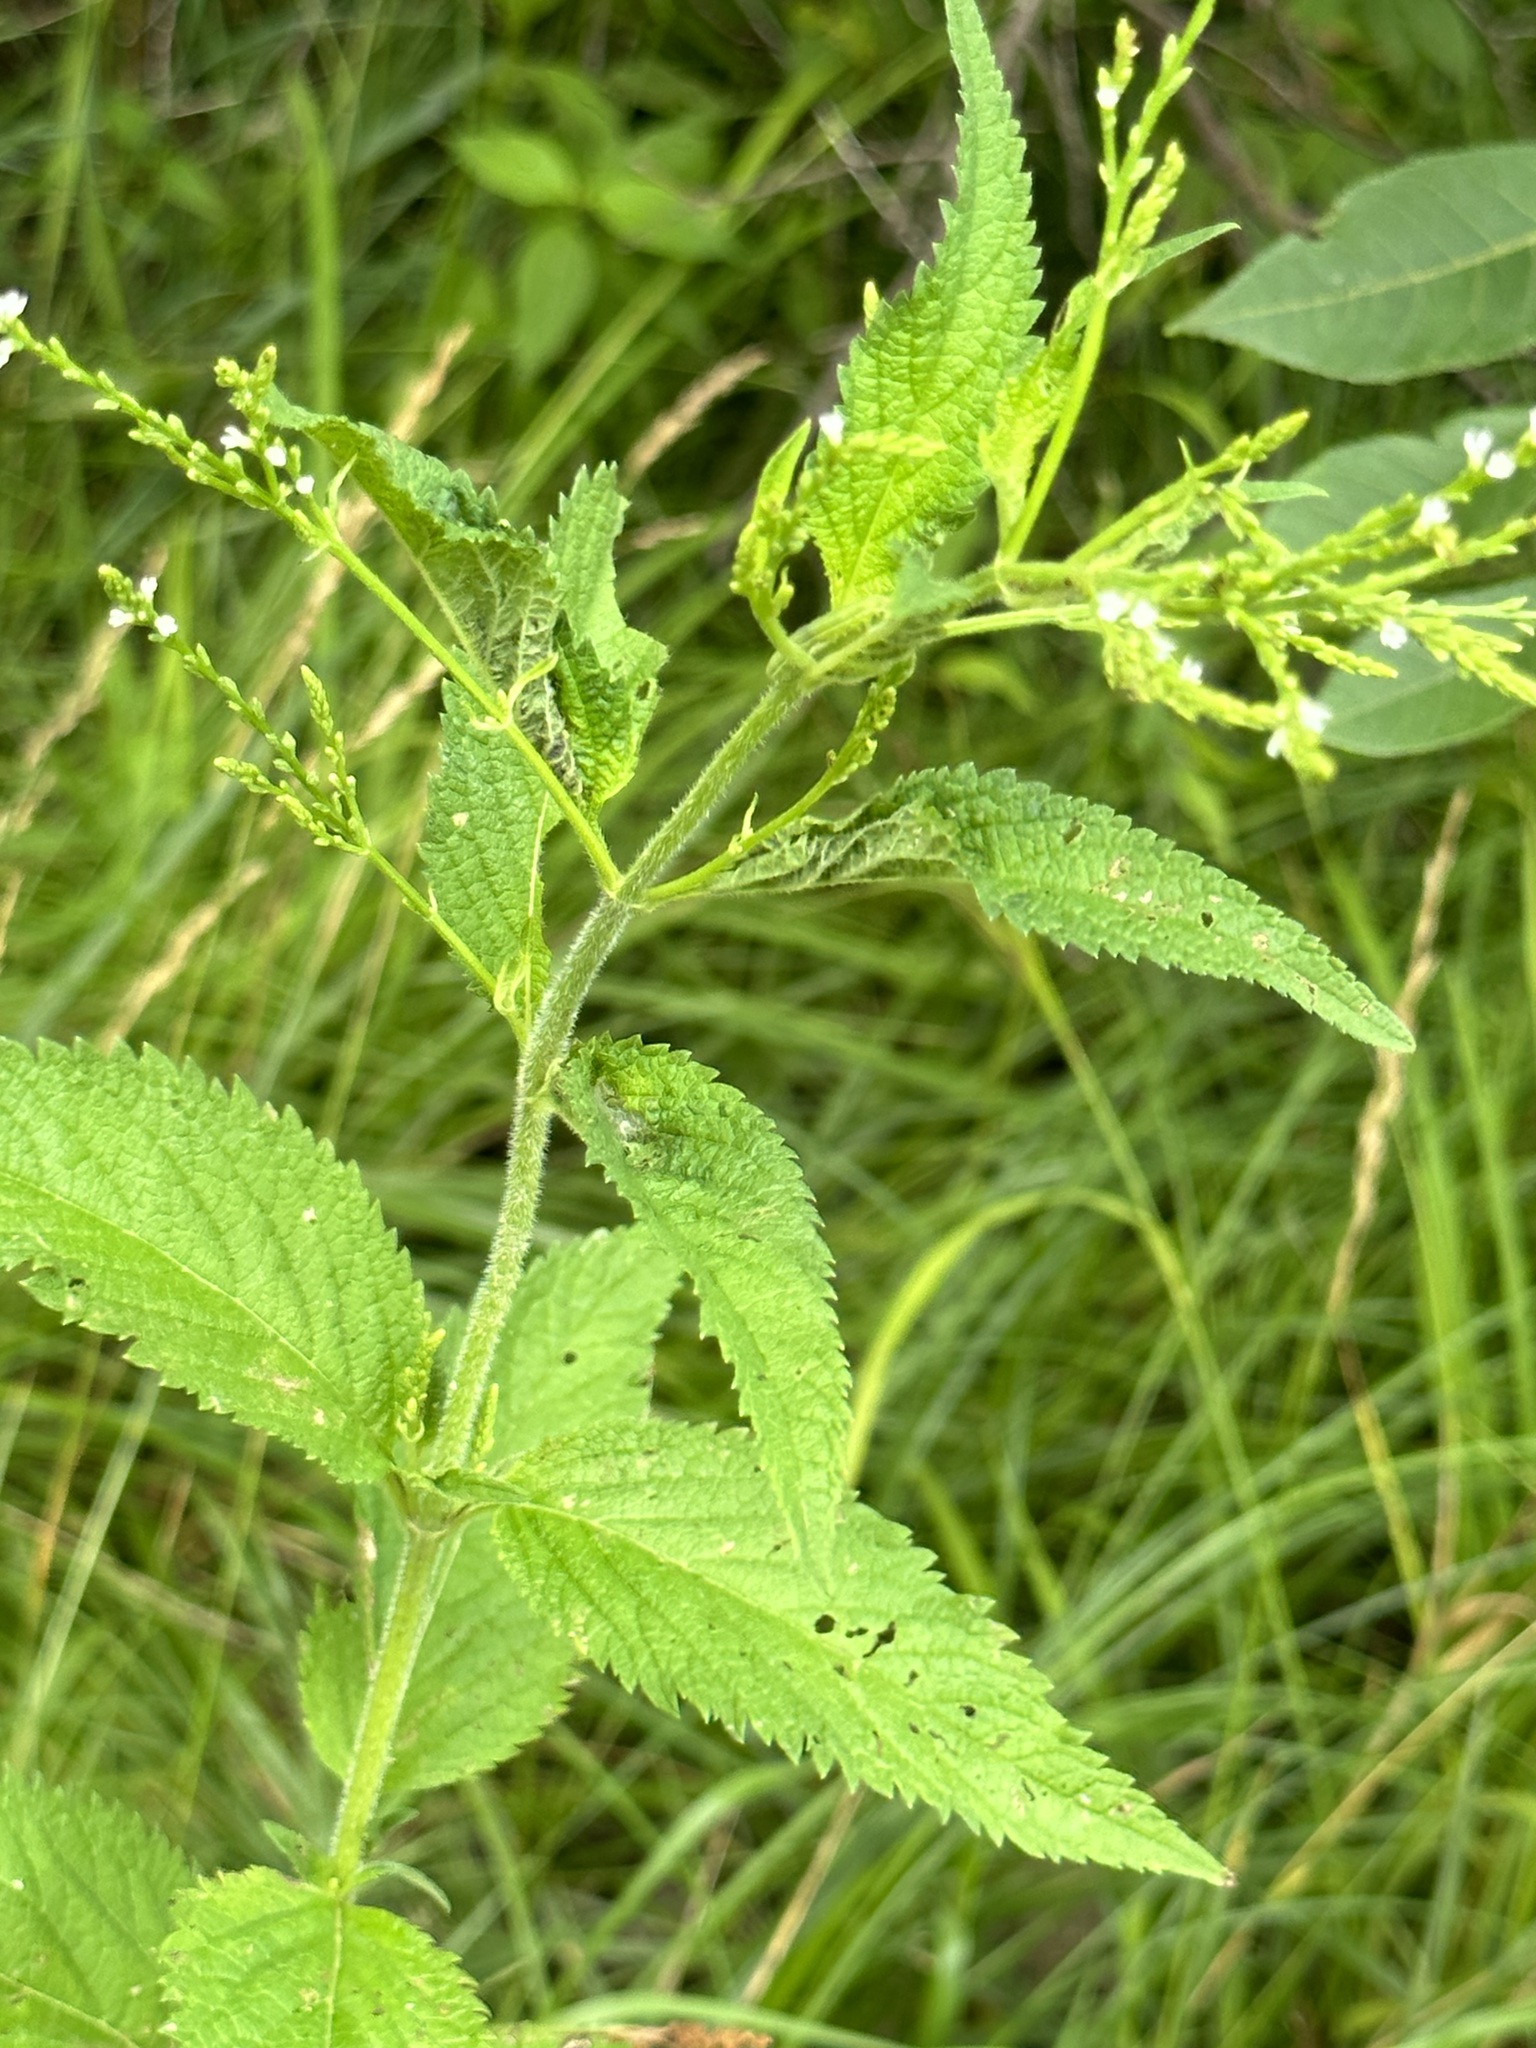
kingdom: Plantae
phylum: Tracheophyta
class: Magnoliopsida
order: Lamiales
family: Verbenaceae
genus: Verbena
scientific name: Verbena urticifolia
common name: Nettle-leaved vervain
